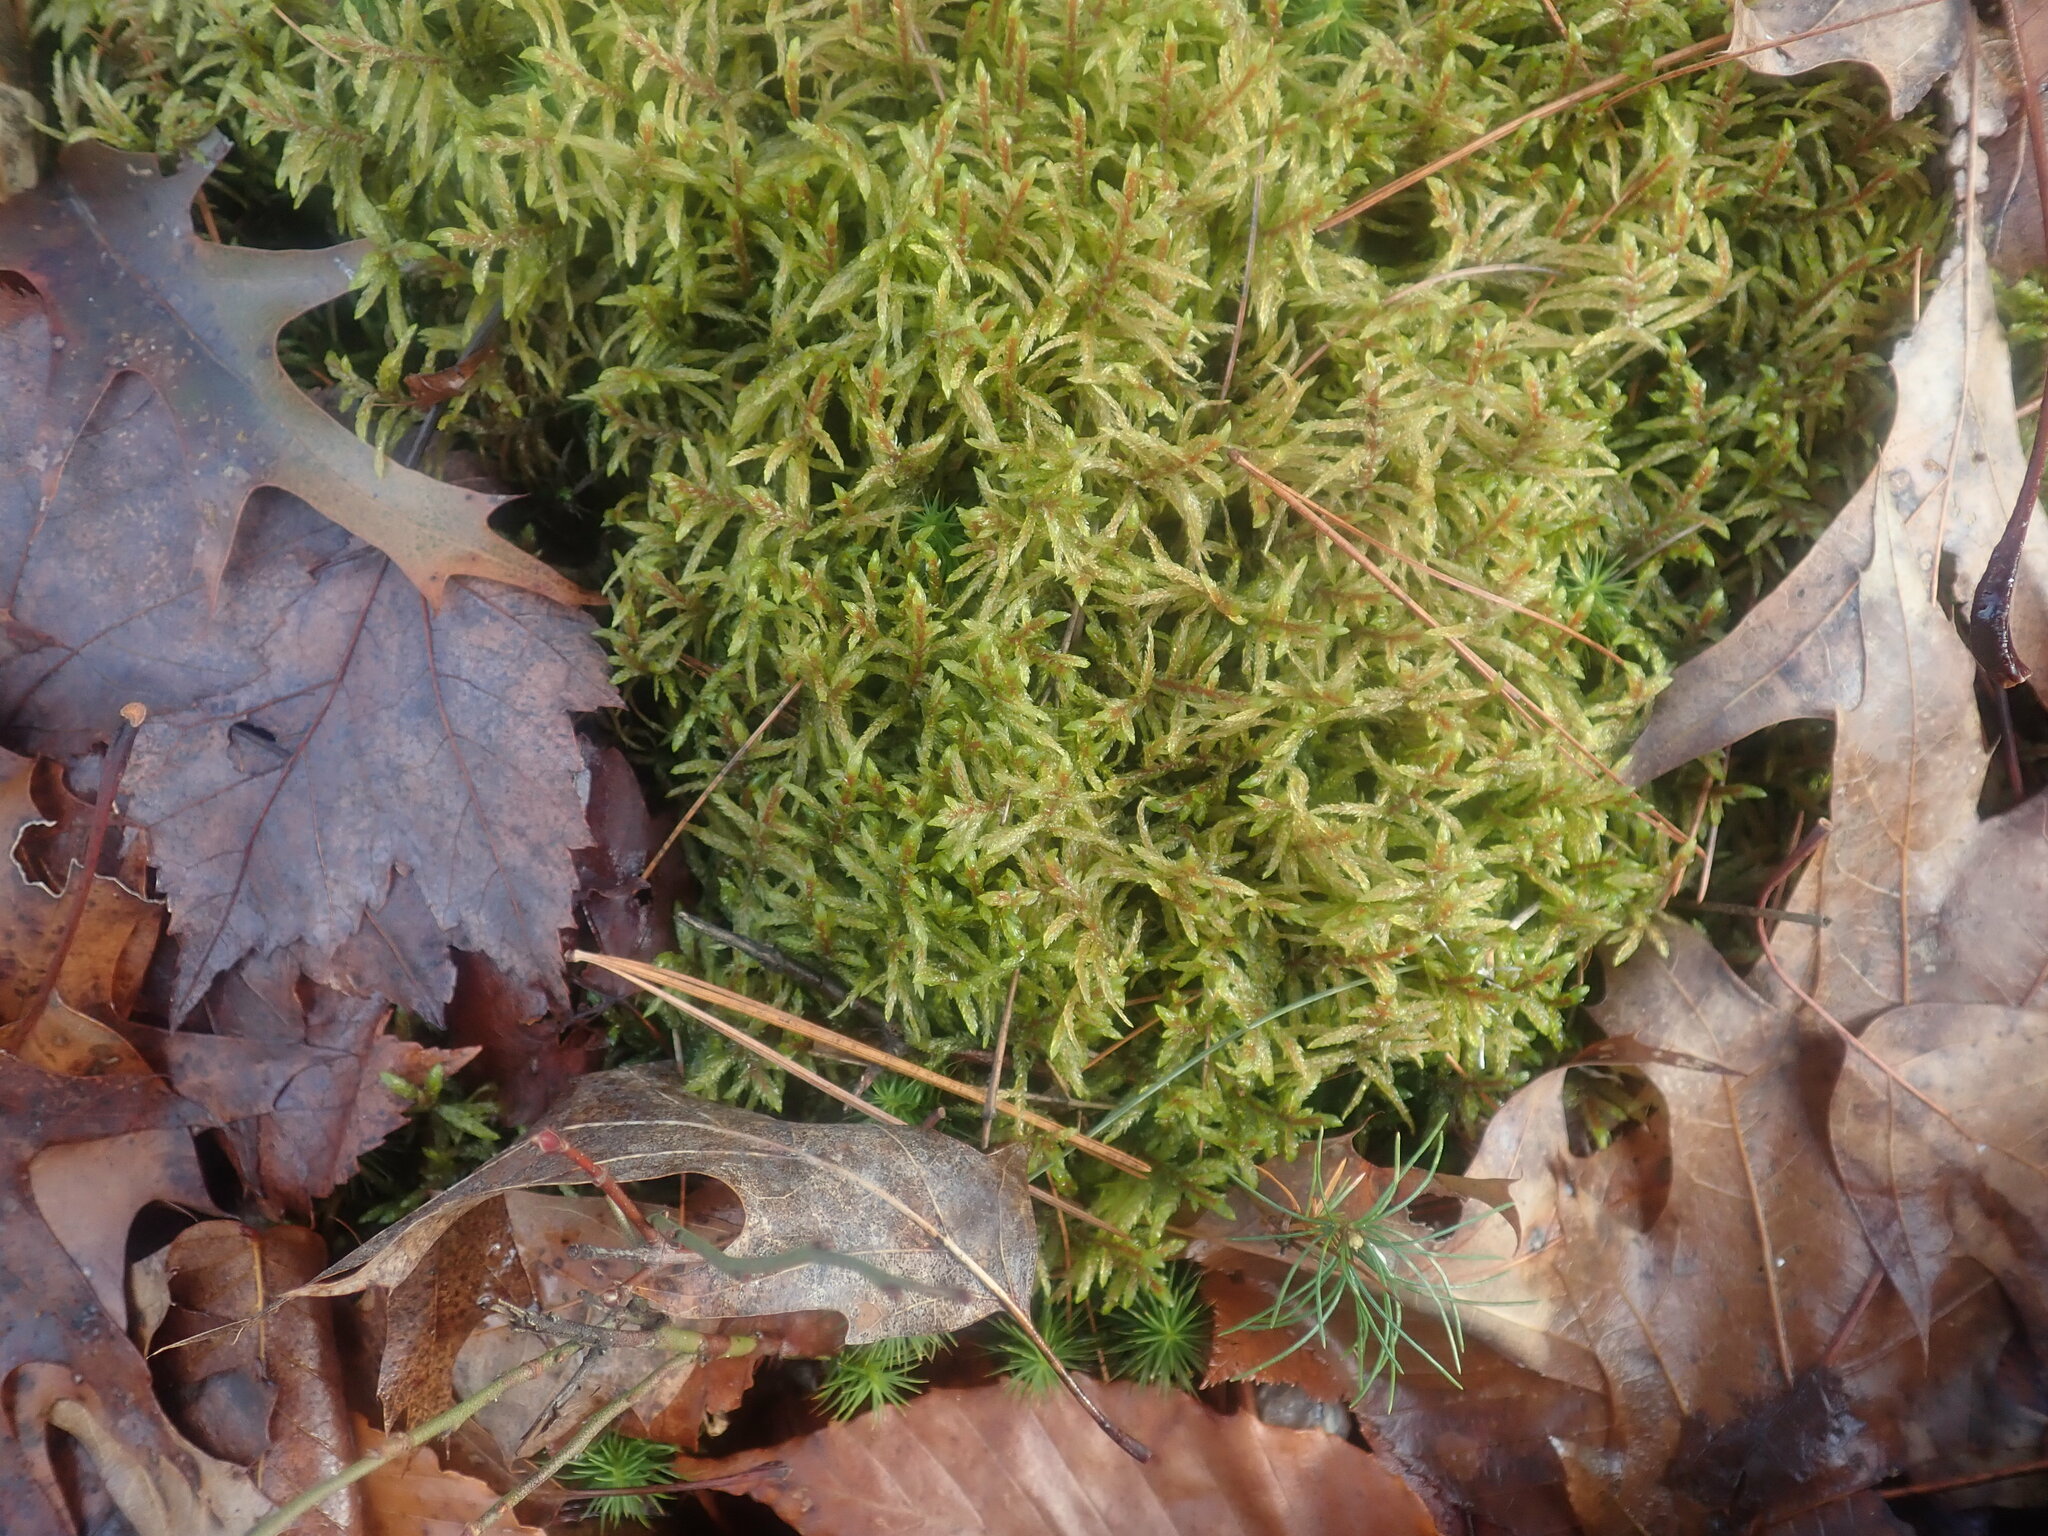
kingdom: Plantae
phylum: Bryophyta
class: Bryopsida
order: Hypnales
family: Hylocomiaceae
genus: Pleurozium
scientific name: Pleurozium schreberi
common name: Red-stemmed feather moss
